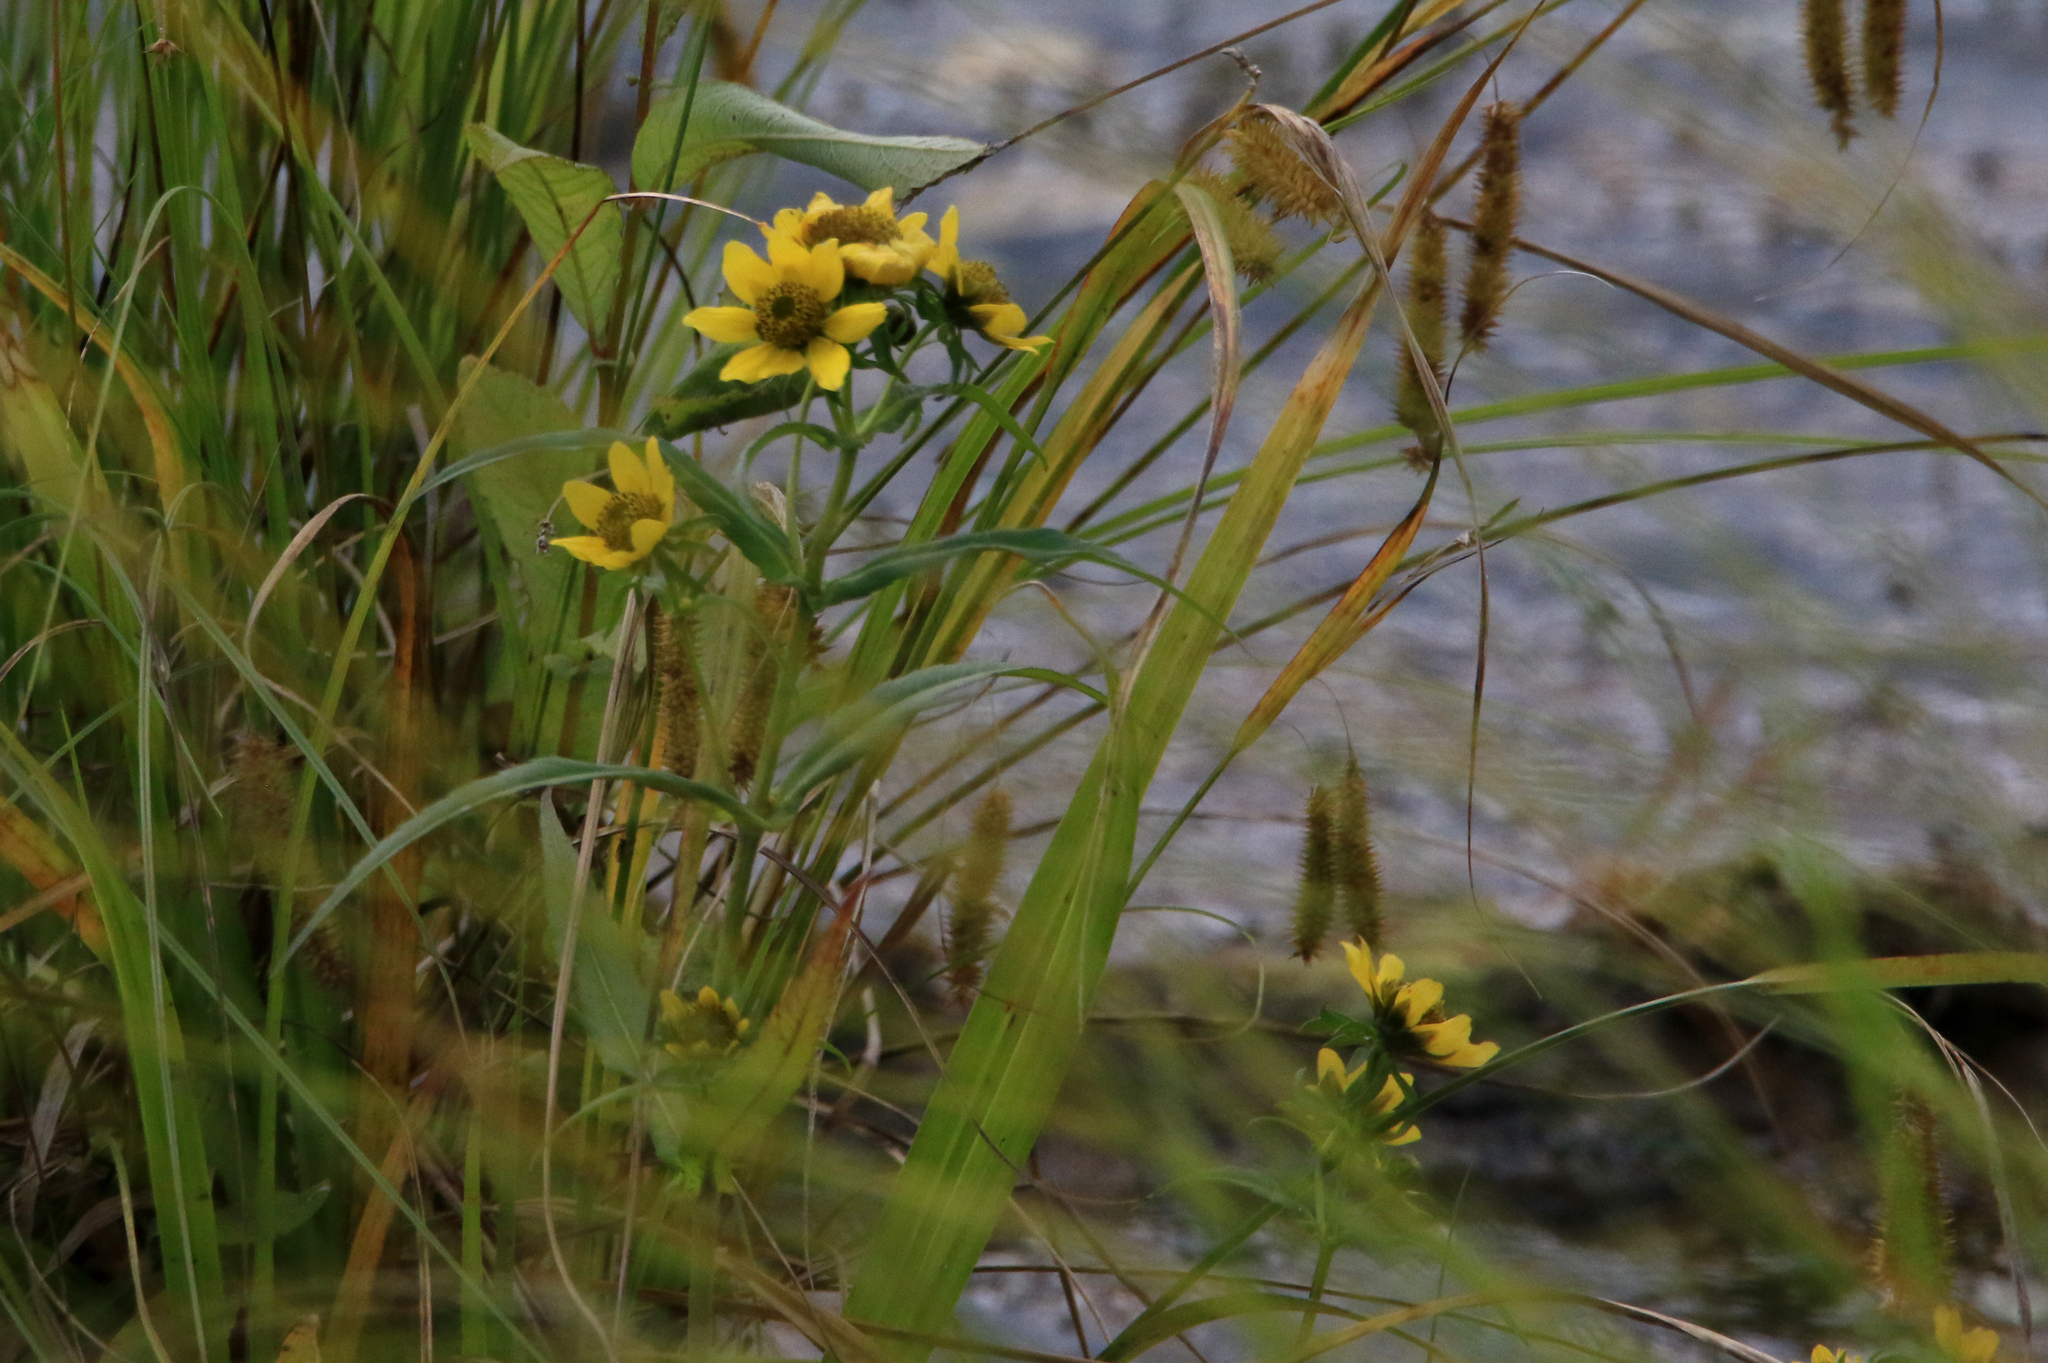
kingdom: Plantae
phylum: Tracheophyta
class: Magnoliopsida
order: Asterales
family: Asteraceae
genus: Bidens
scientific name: Bidens cernua
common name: Nodding bur-marigold
